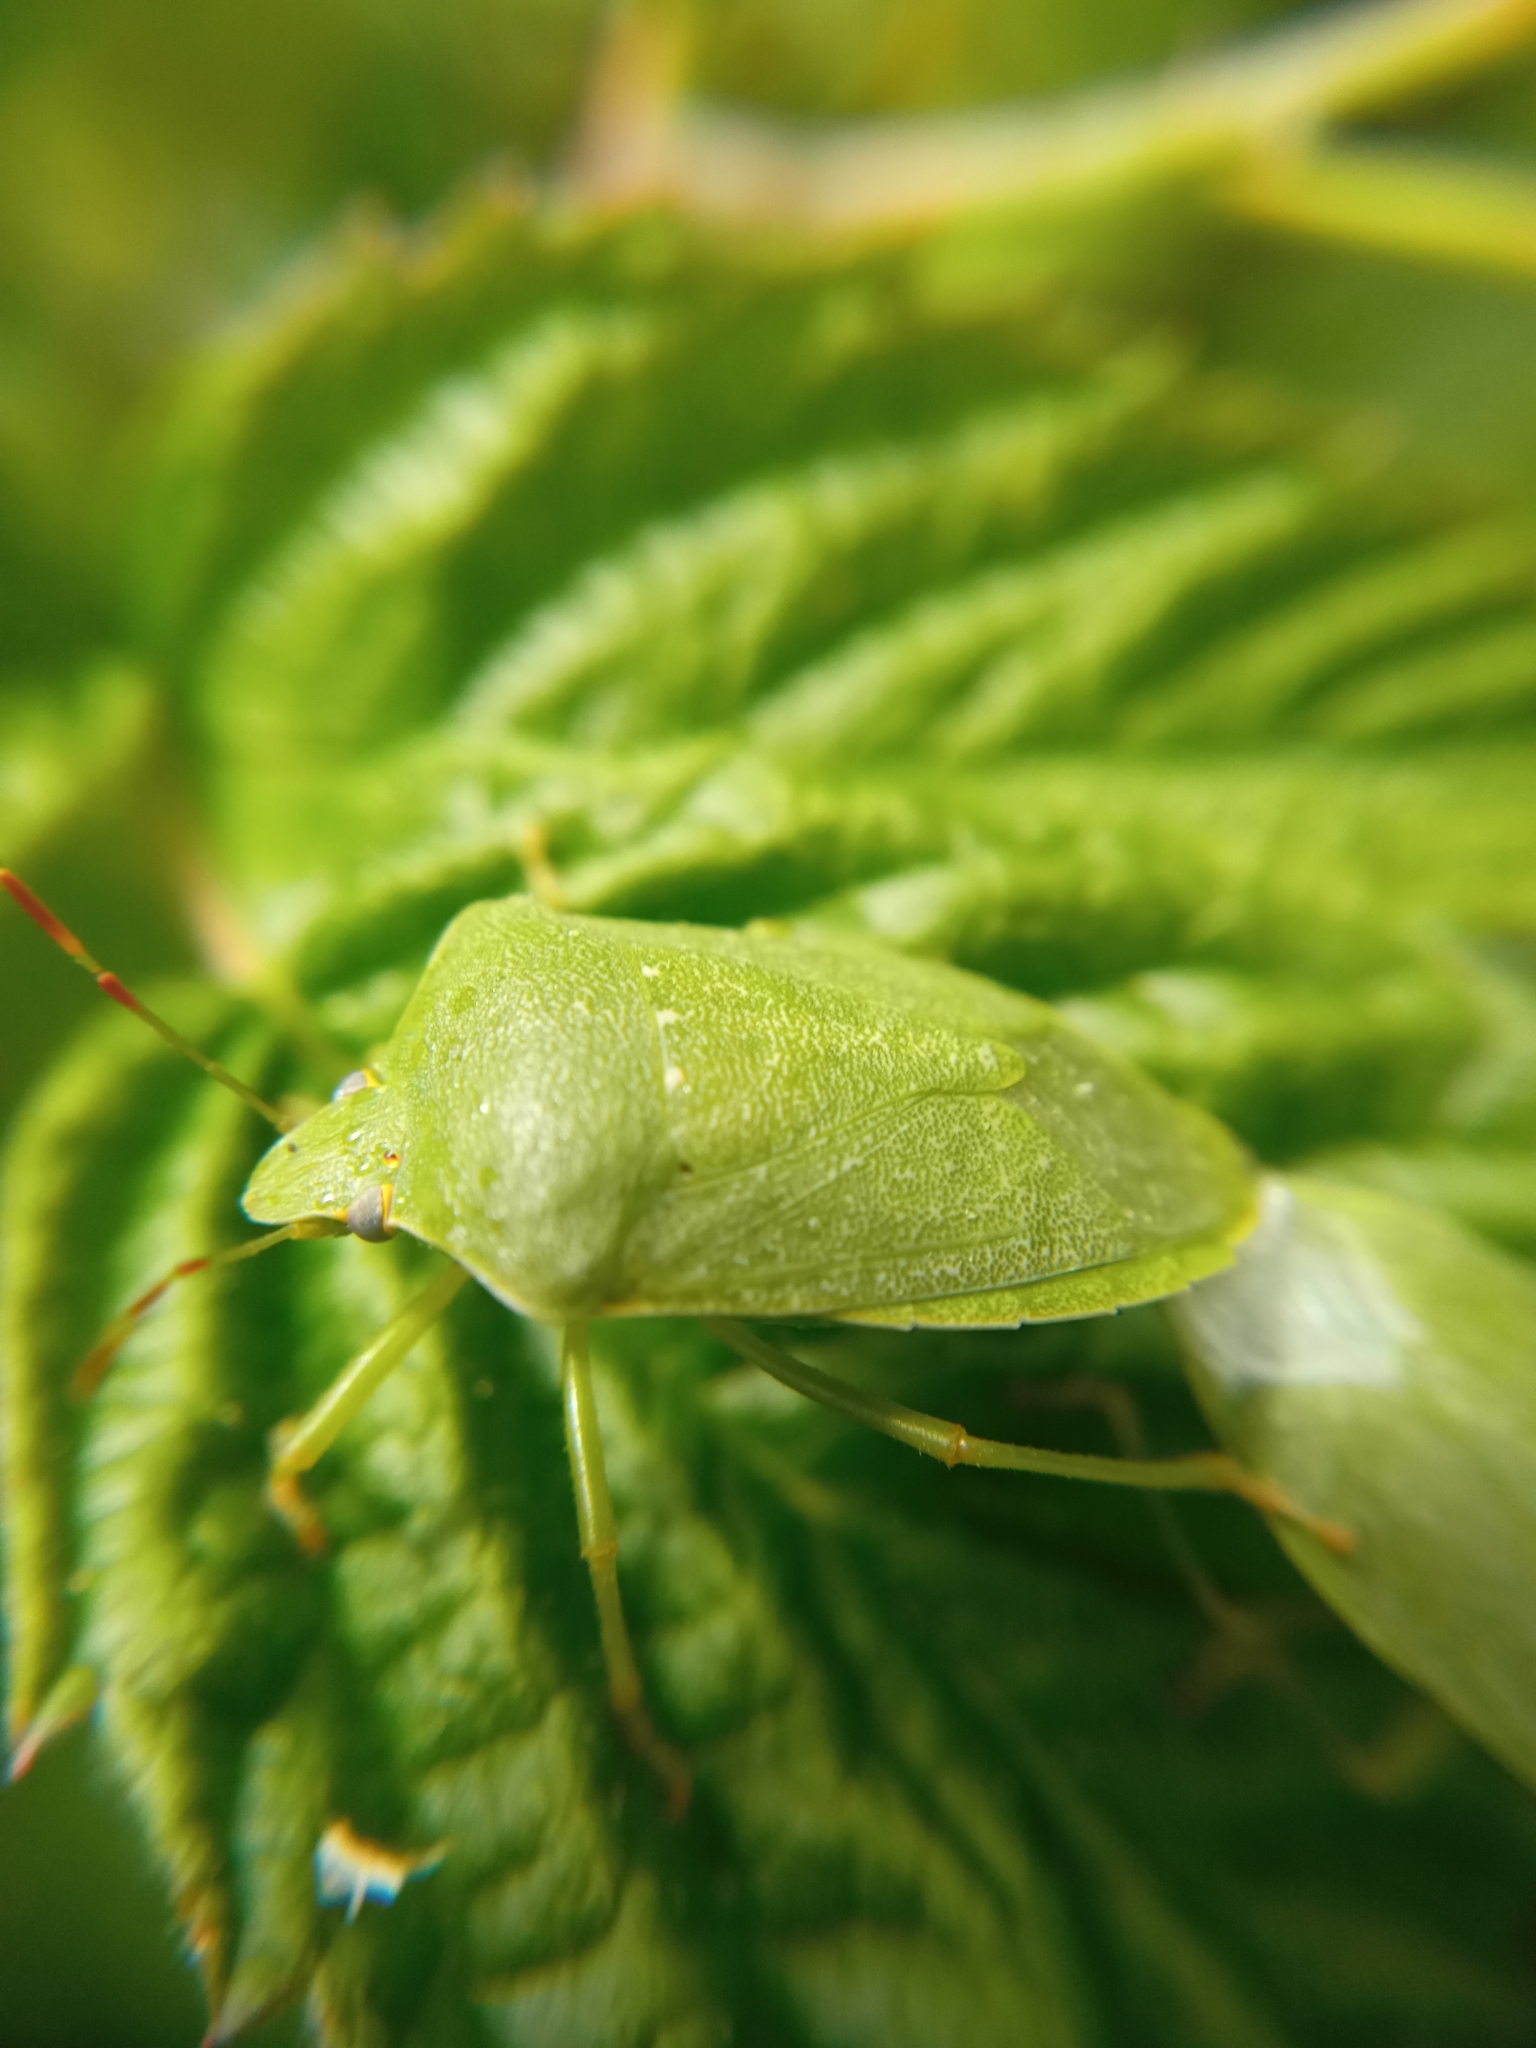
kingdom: Animalia
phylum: Arthropoda
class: Insecta
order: Hemiptera
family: Pentatomidae
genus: Nezara
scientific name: Nezara viridula
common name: Southern green stink bug
